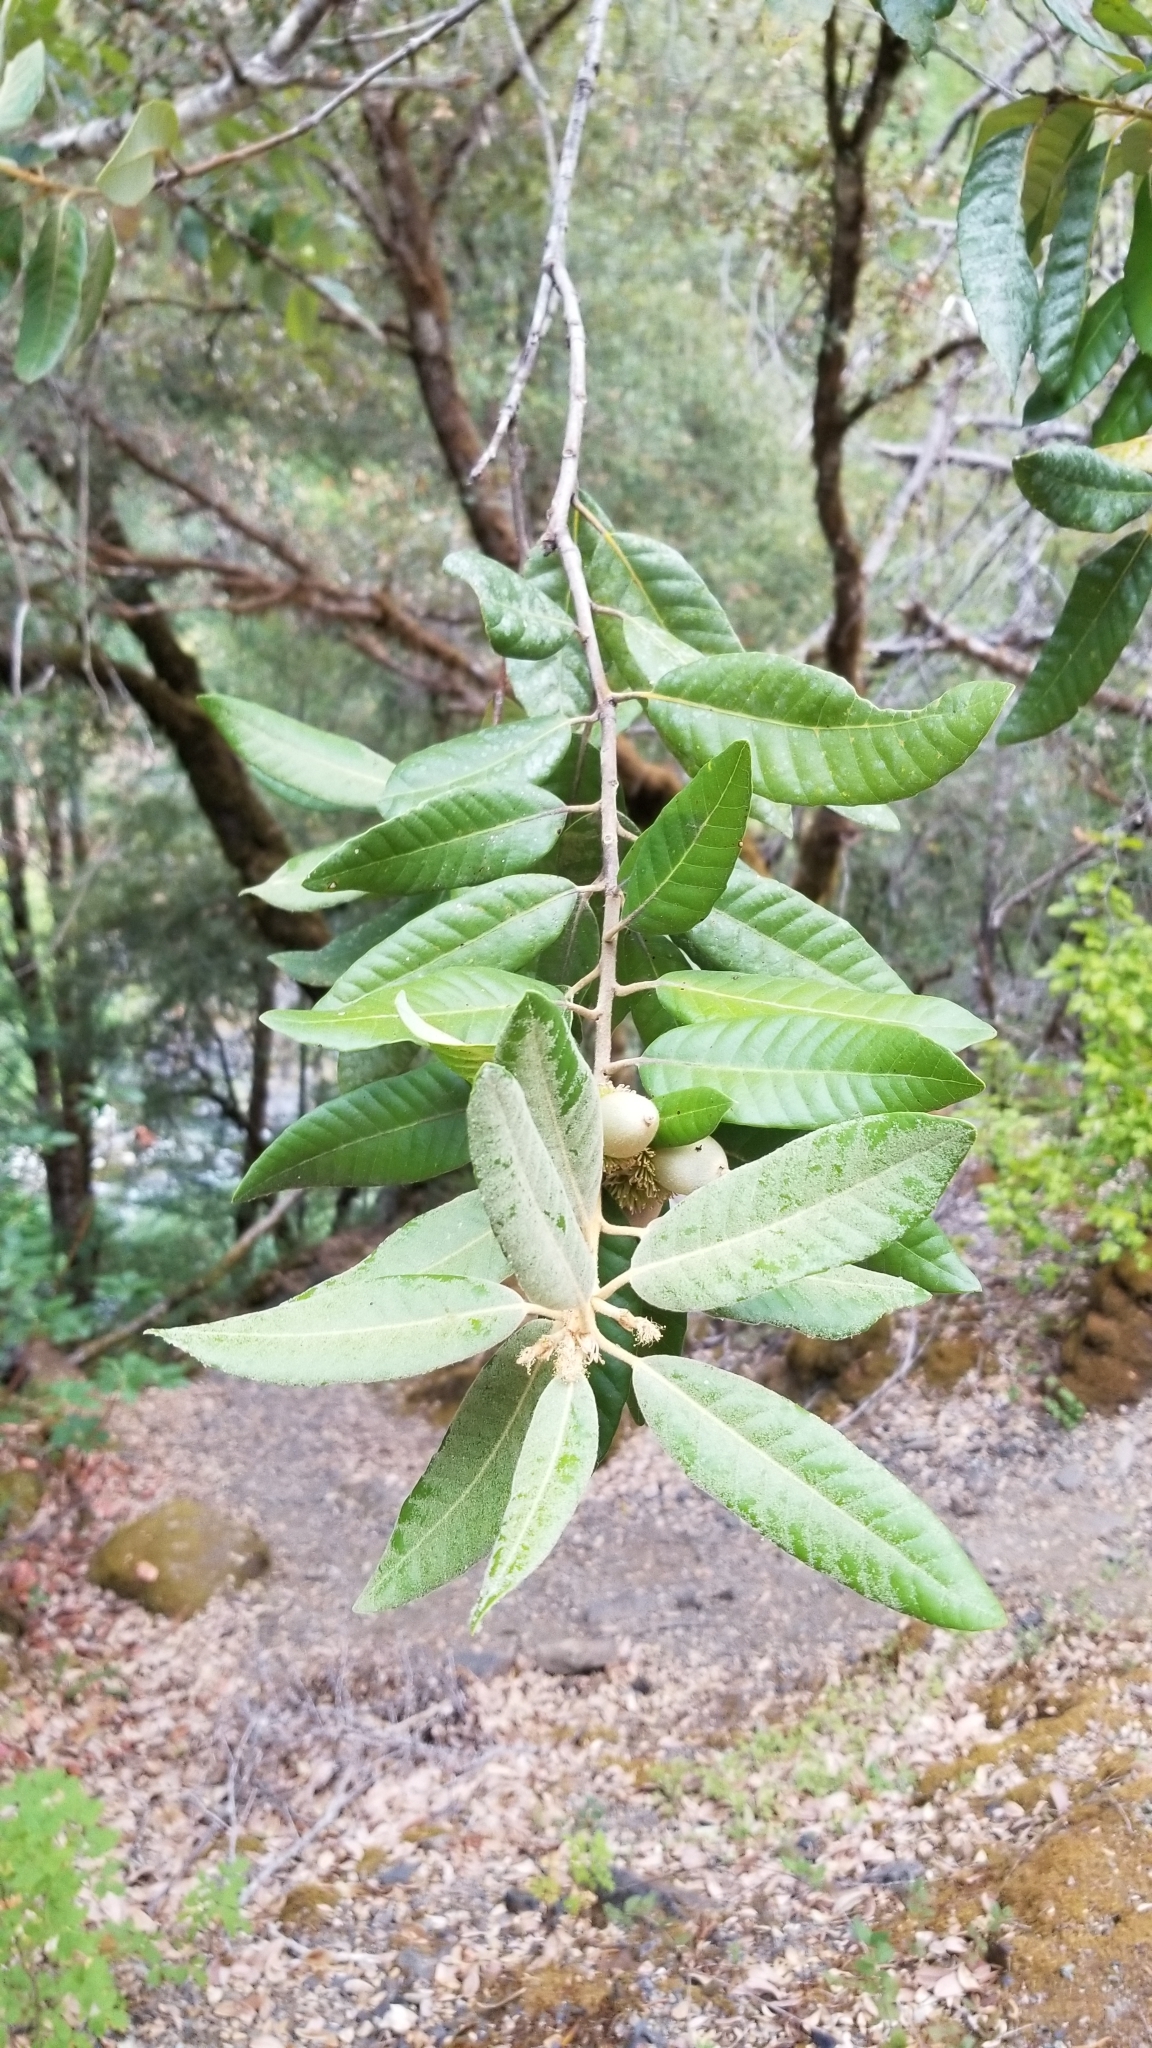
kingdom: Plantae
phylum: Tracheophyta
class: Magnoliopsida
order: Fagales
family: Fagaceae
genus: Notholithocarpus
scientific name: Notholithocarpus densiflorus
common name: Tan bark oak
